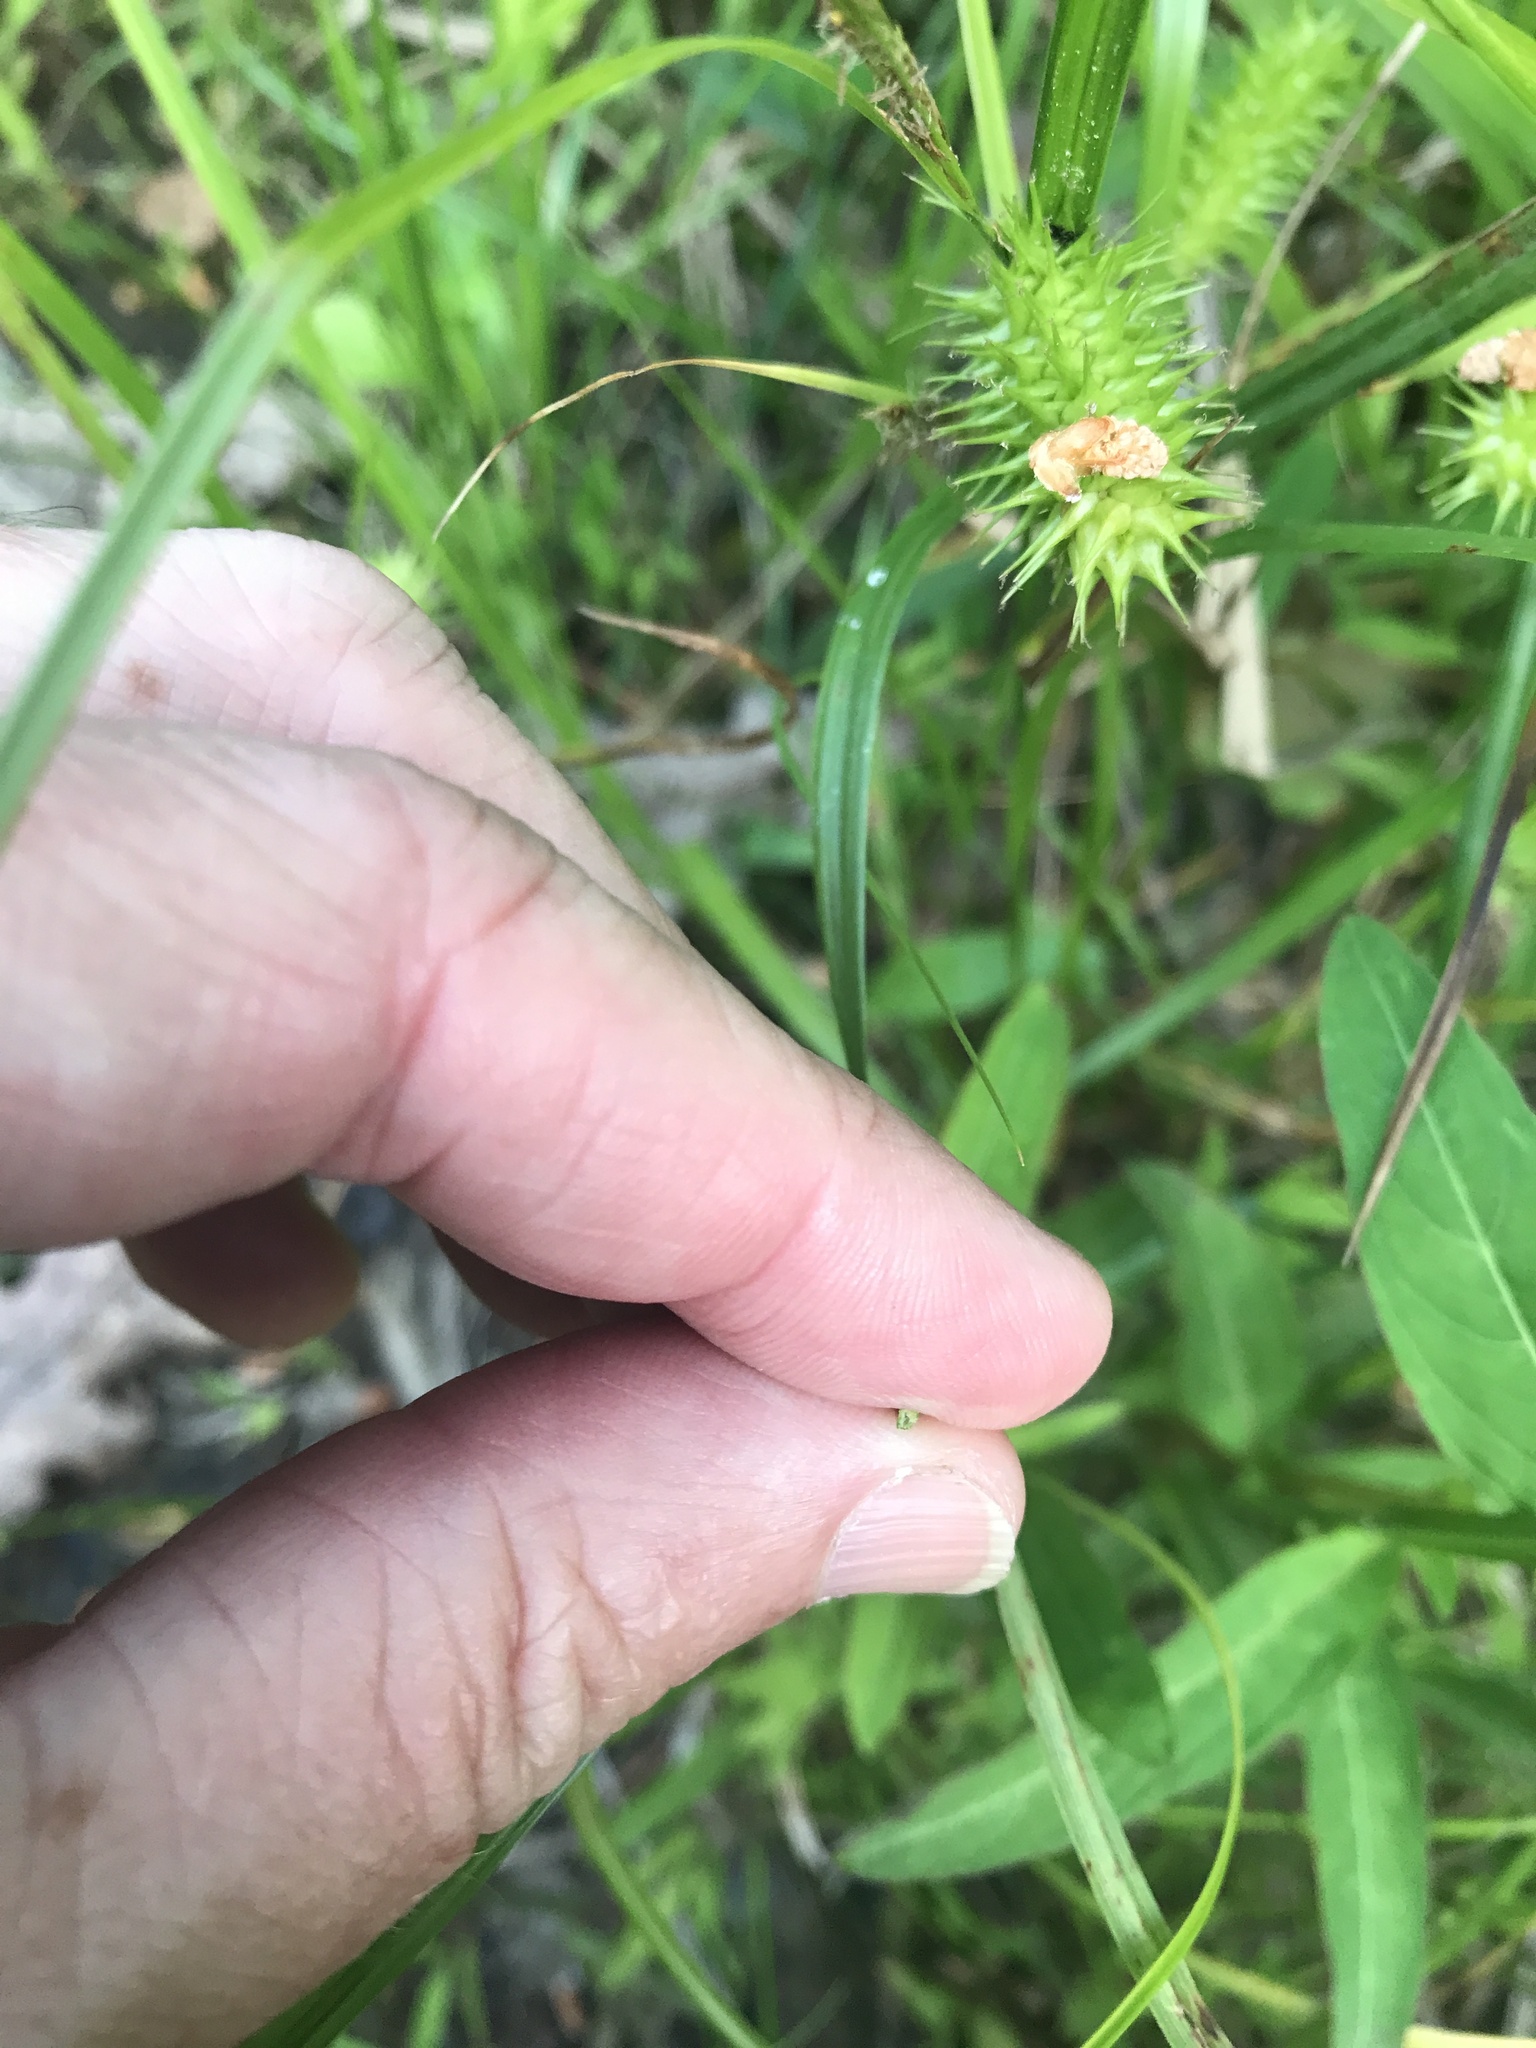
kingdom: Plantae
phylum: Tracheophyta
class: Liliopsida
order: Poales
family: Cyperaceae
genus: Carex
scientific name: Carex lurida
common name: Sallow sedge
